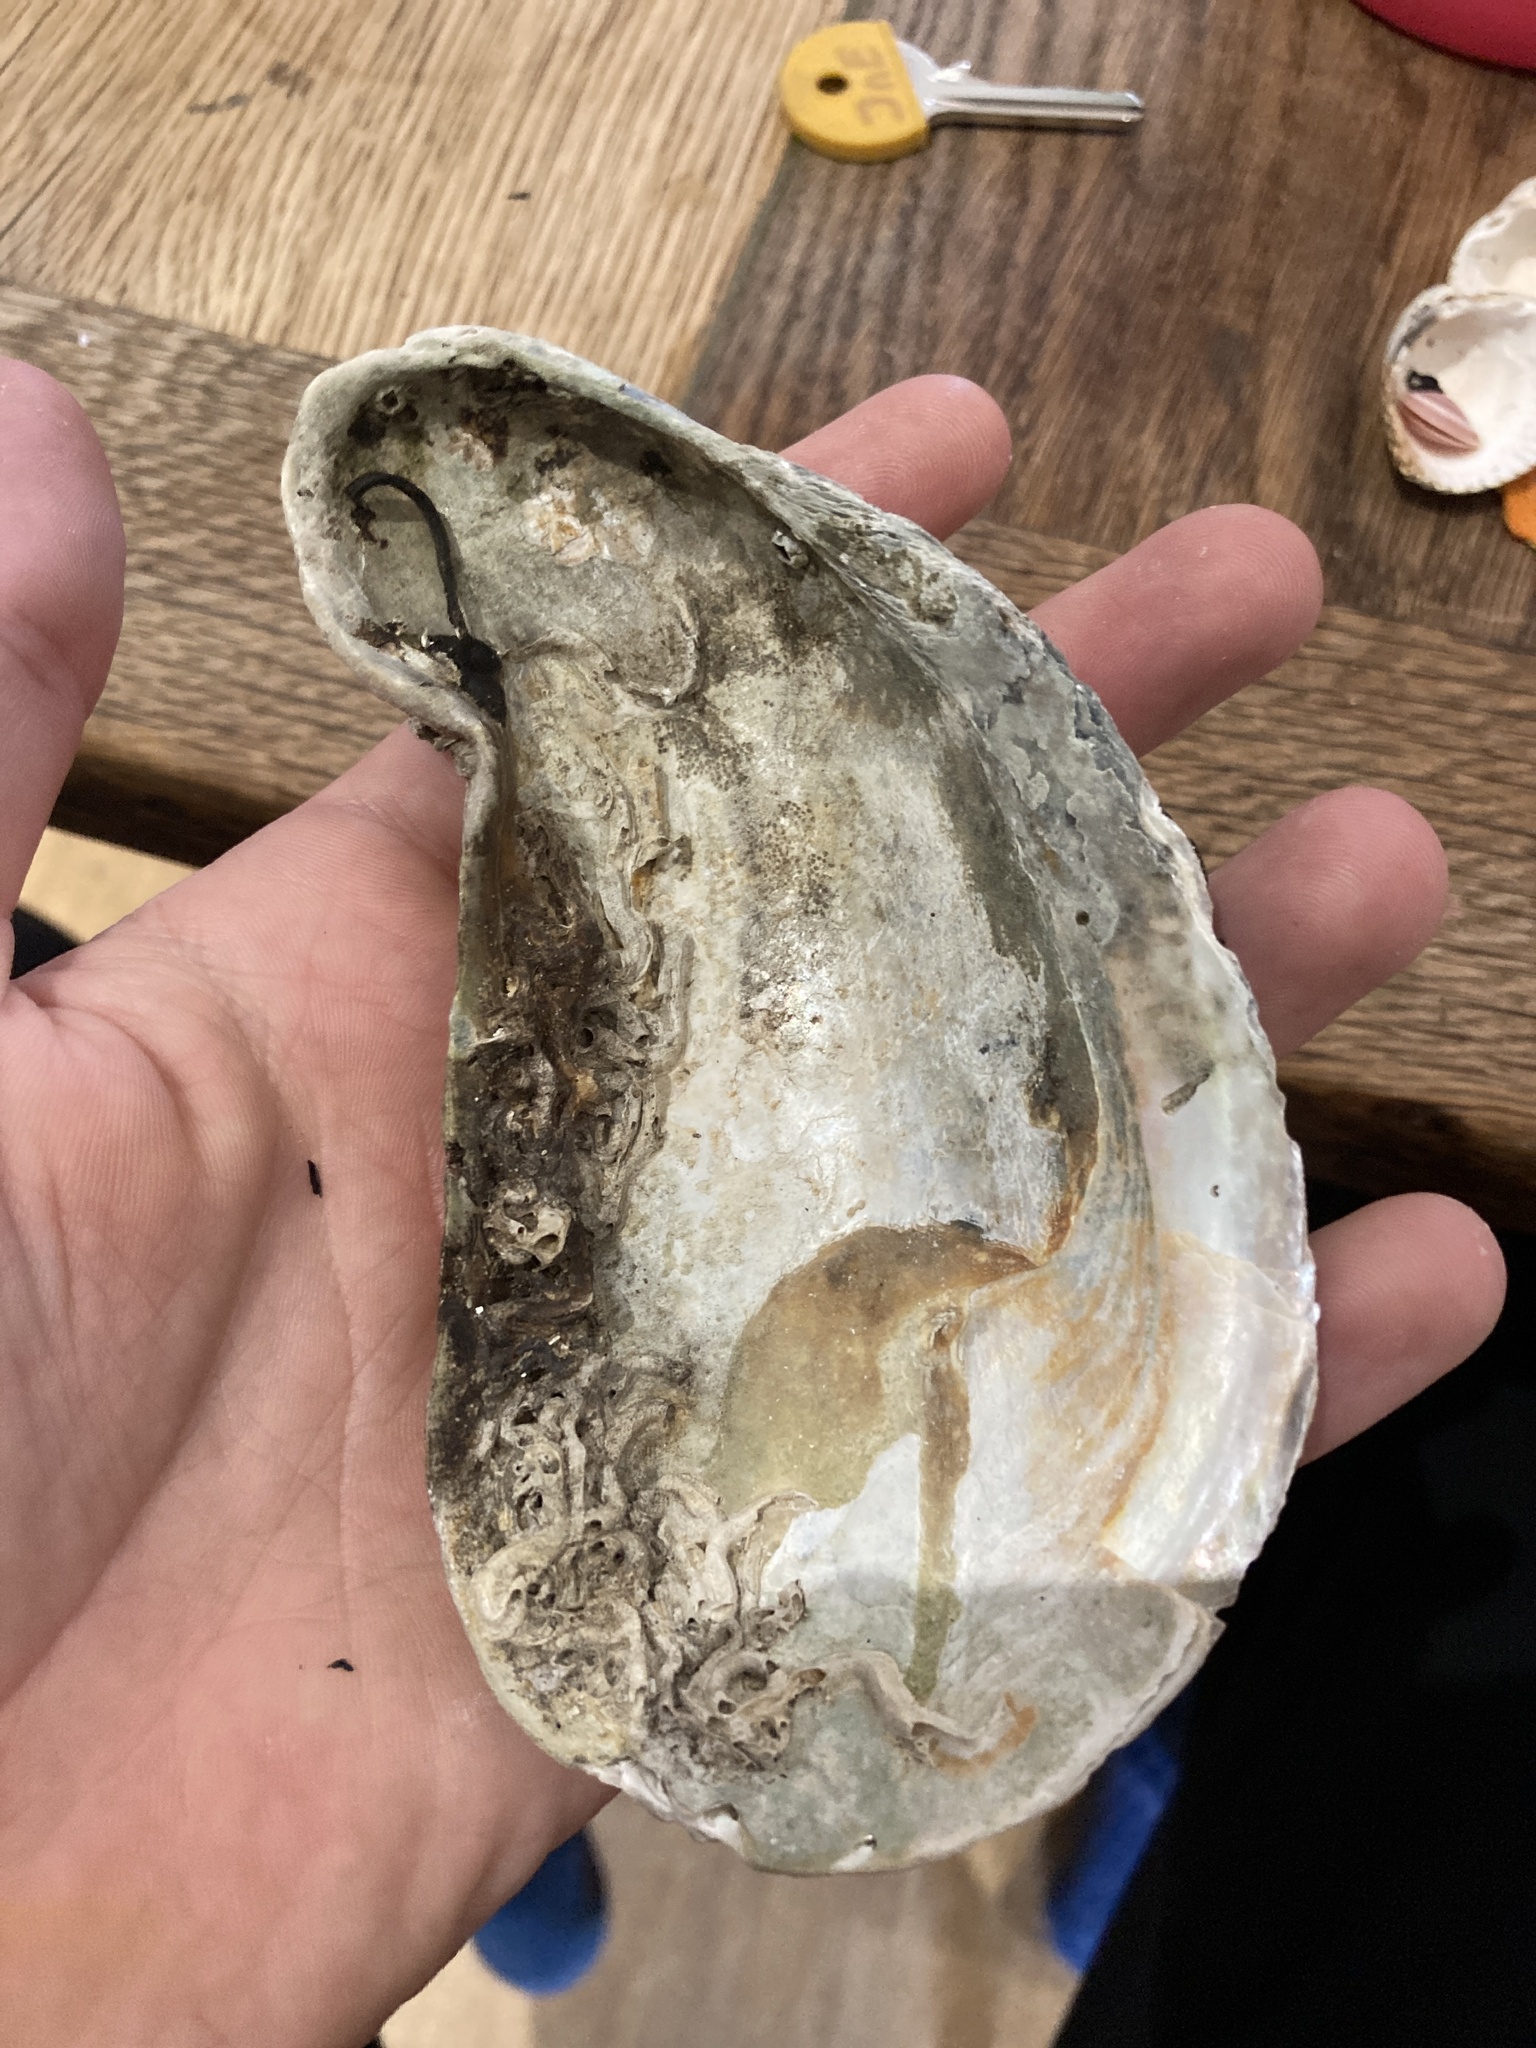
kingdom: Animalia
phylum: Mollusca
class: Bivalvia
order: Mytilida
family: Mytilidae
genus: Modiolus
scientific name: Modiolus modiolus
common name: Horse-mussel
